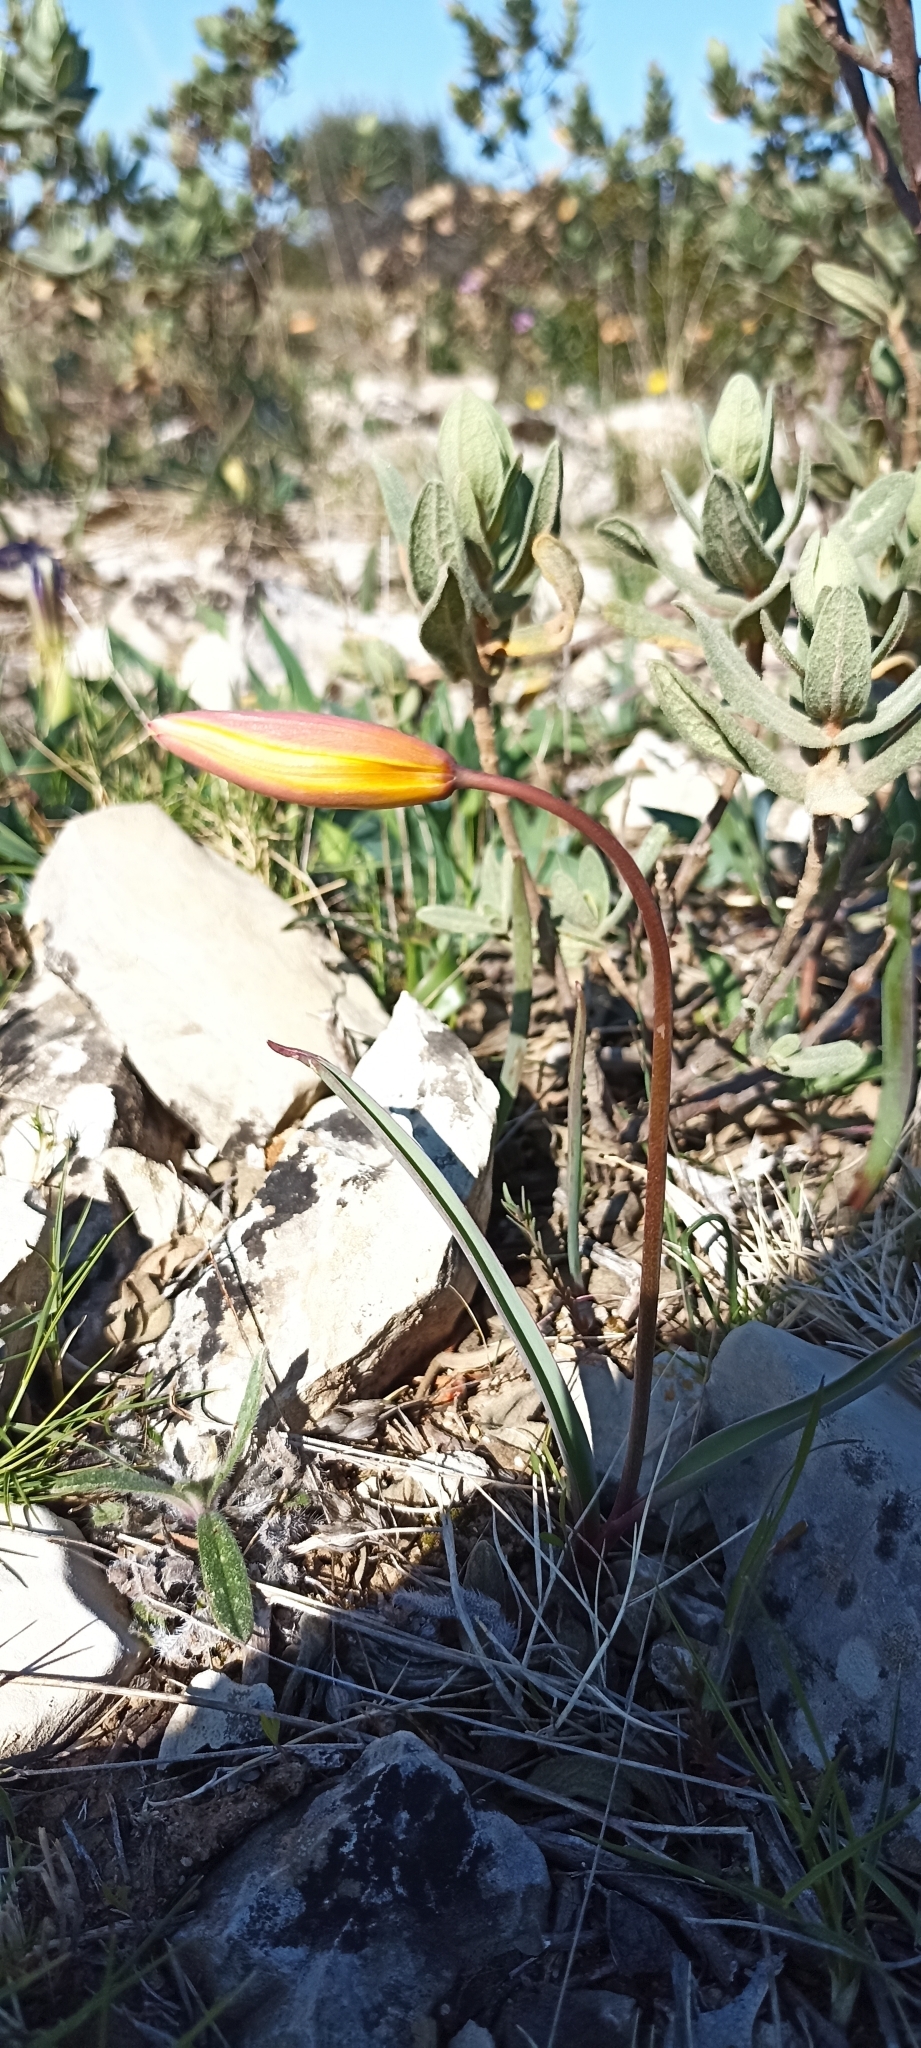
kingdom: Plantae
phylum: Tracheophyta
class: Liliopsida
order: Liliales
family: Liliaceae
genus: Tulipa
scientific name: Tulipa sylvestris
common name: Wild tulip
